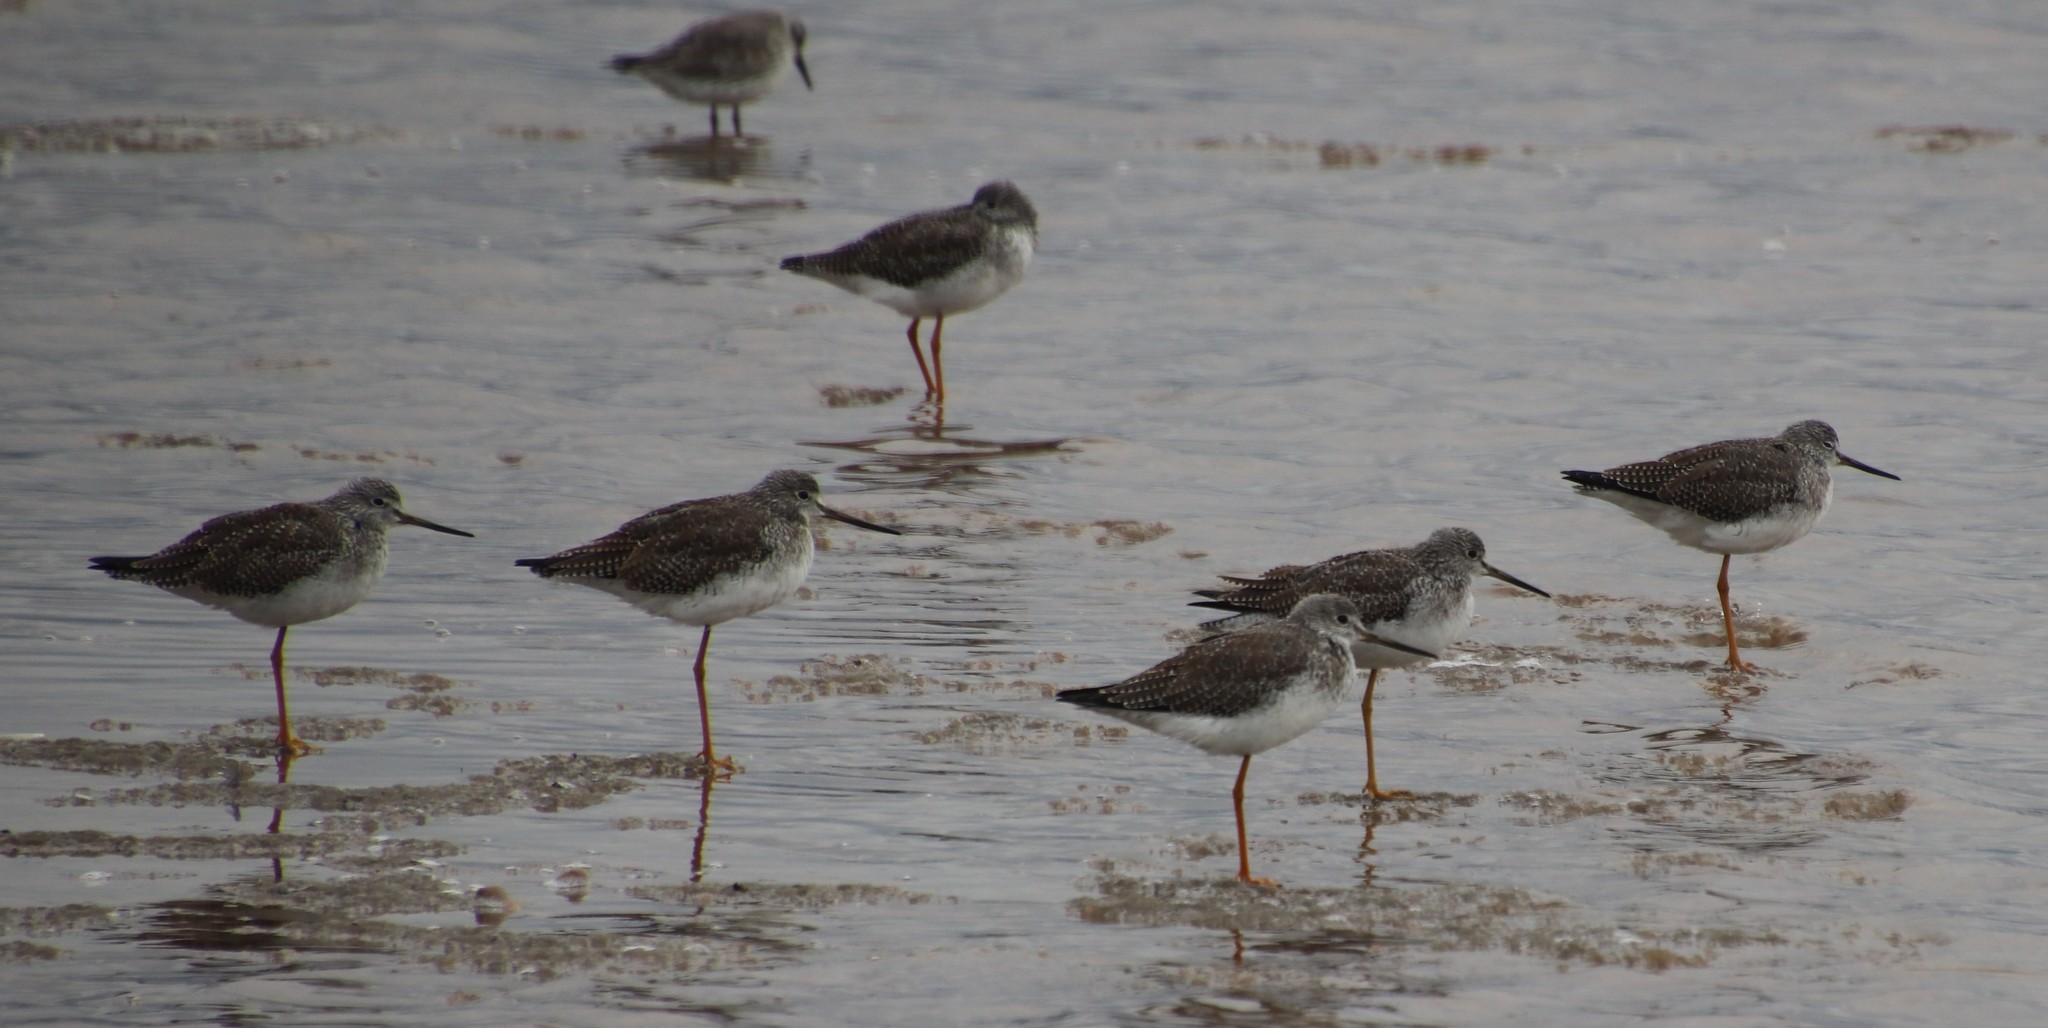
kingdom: Animalia
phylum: Chordata
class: Aves
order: Charadriiformes
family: Scolopacidae
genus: Tringa
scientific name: Tringa melanoleuca
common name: Greater yellowlegs
